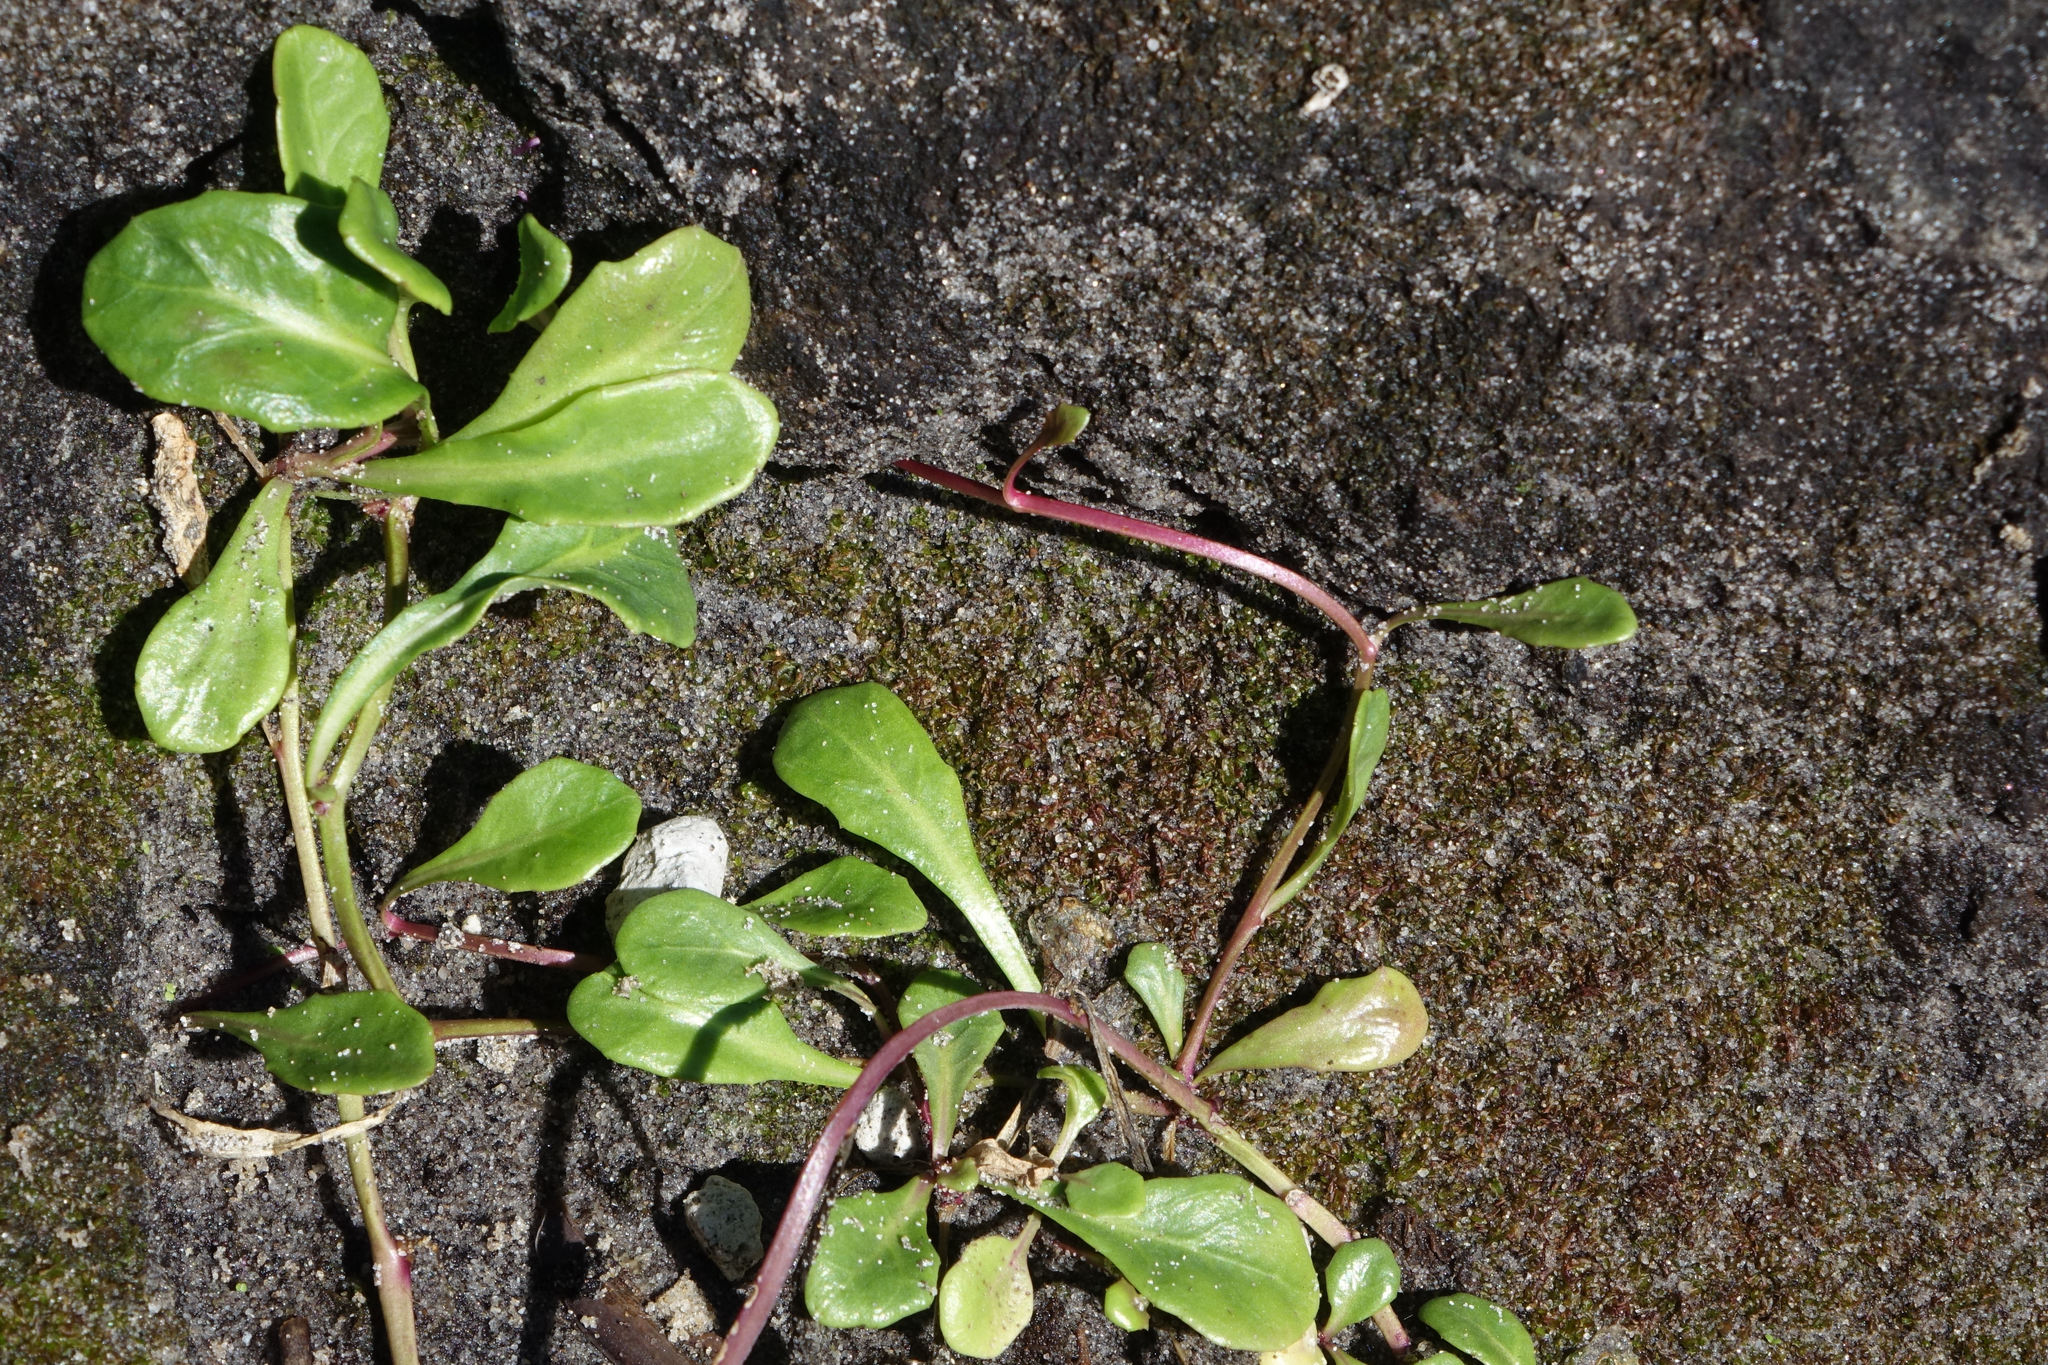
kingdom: Plantae
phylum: Tracheophyta
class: Magnoliopsida
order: Asterales
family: Campanulaceae
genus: Lobelia
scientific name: Lobelia anceps
